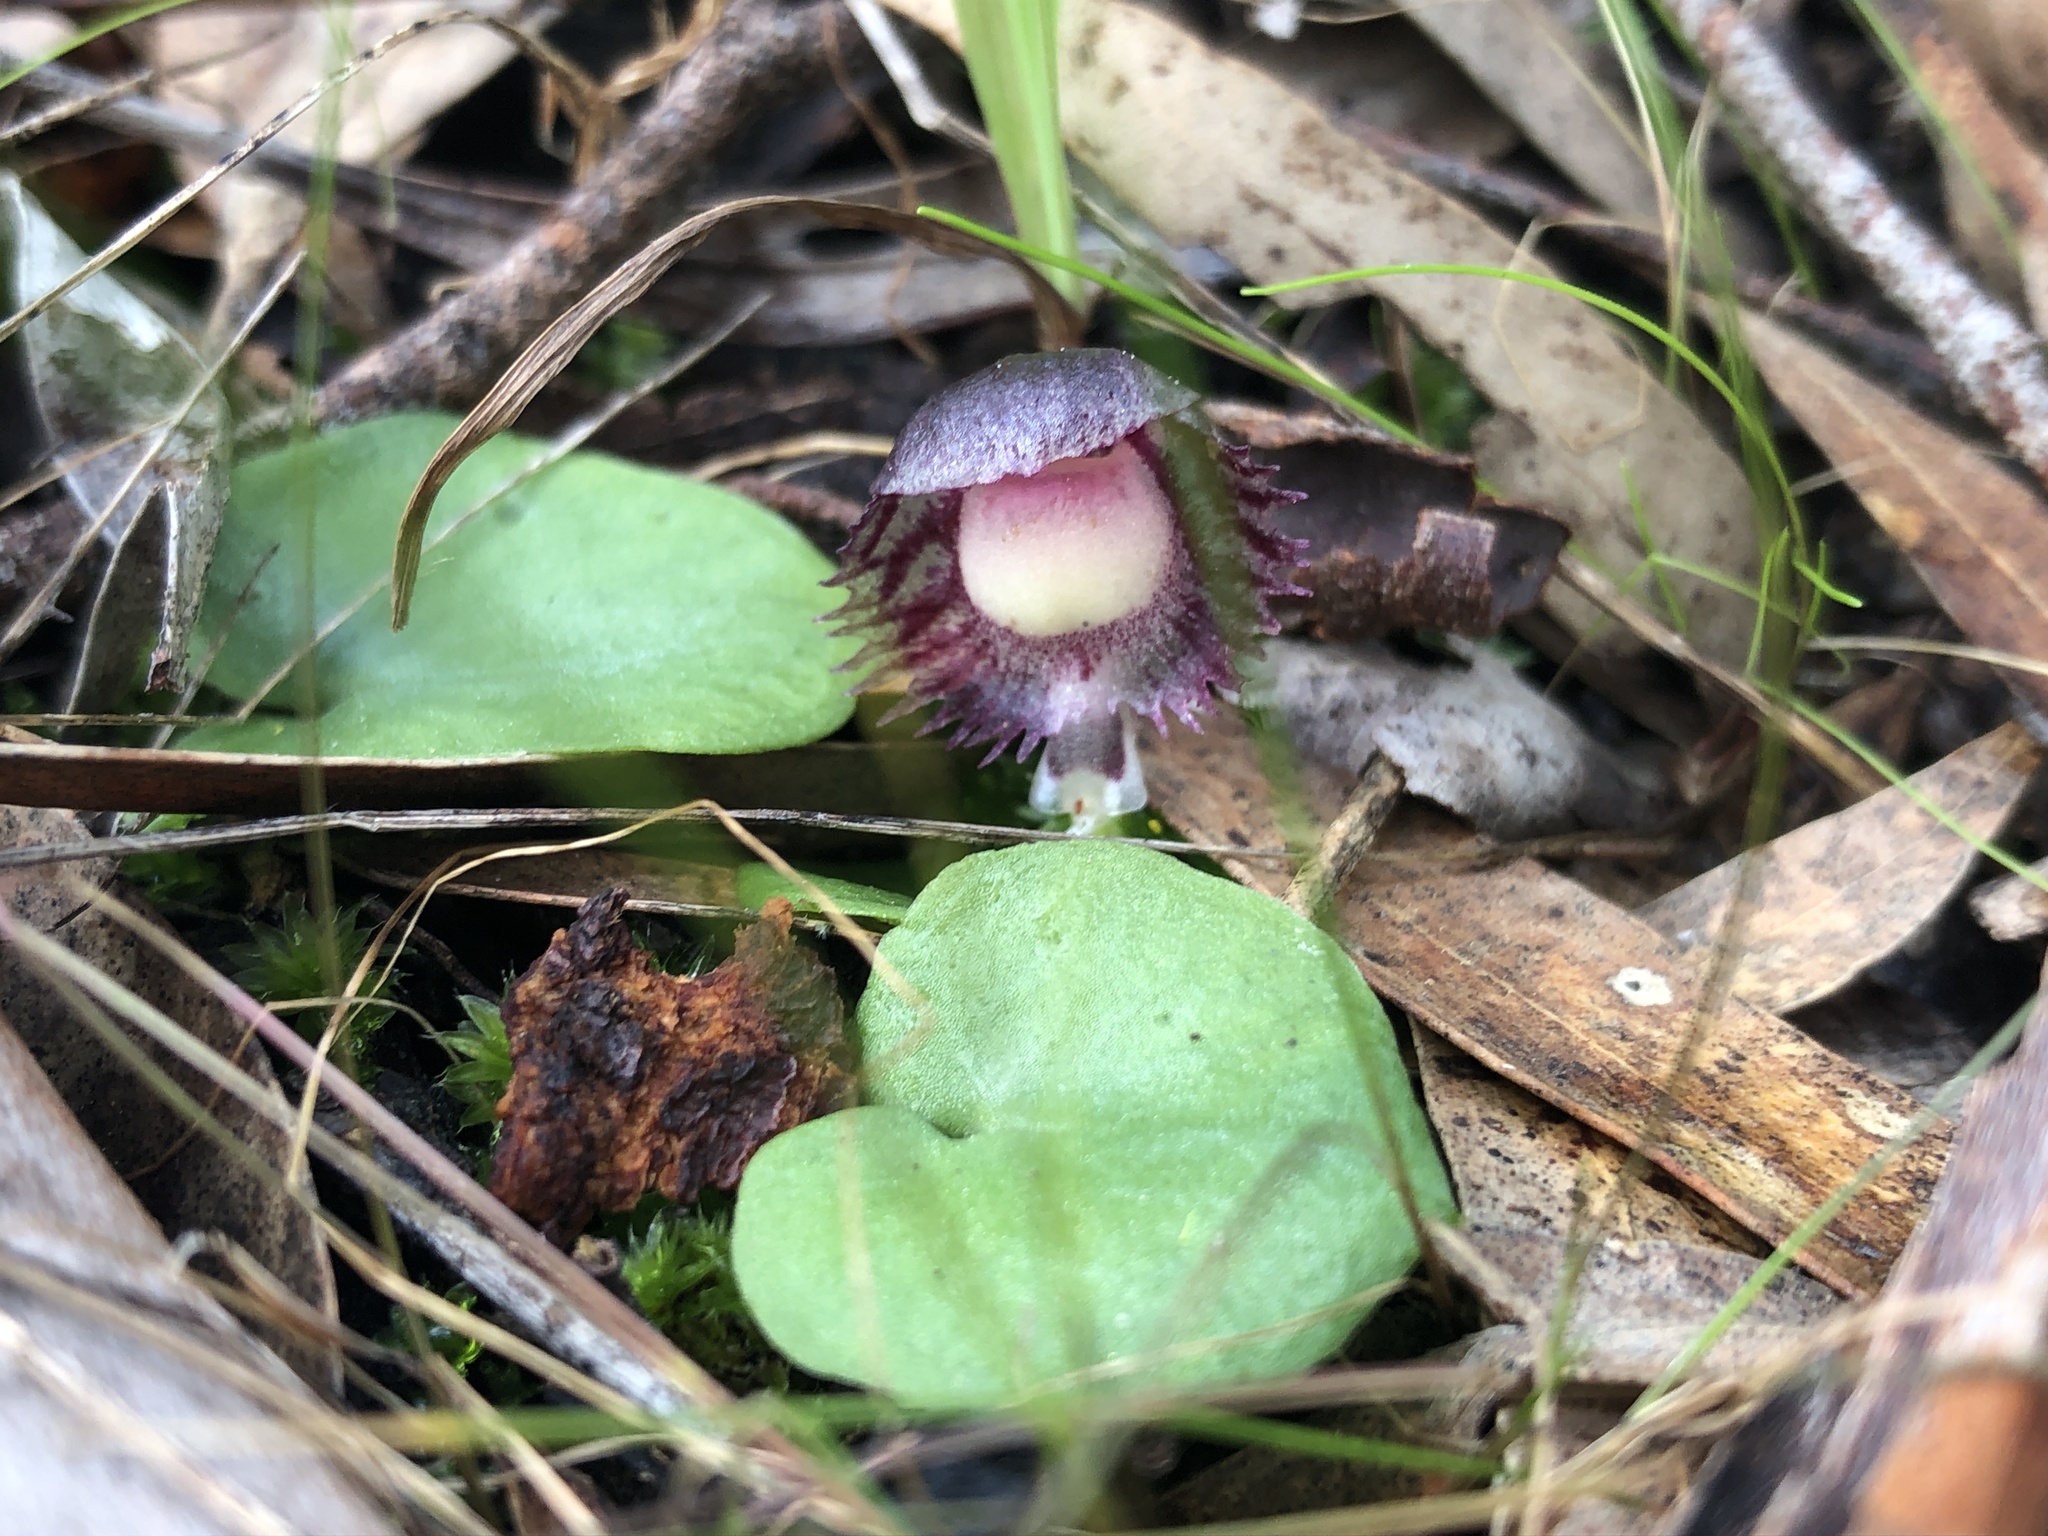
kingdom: Plantae
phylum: Tracheophyta
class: Liliopsida
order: Asparagales
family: Orchidaceae
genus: Corybas
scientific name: Corybas diemenicus
